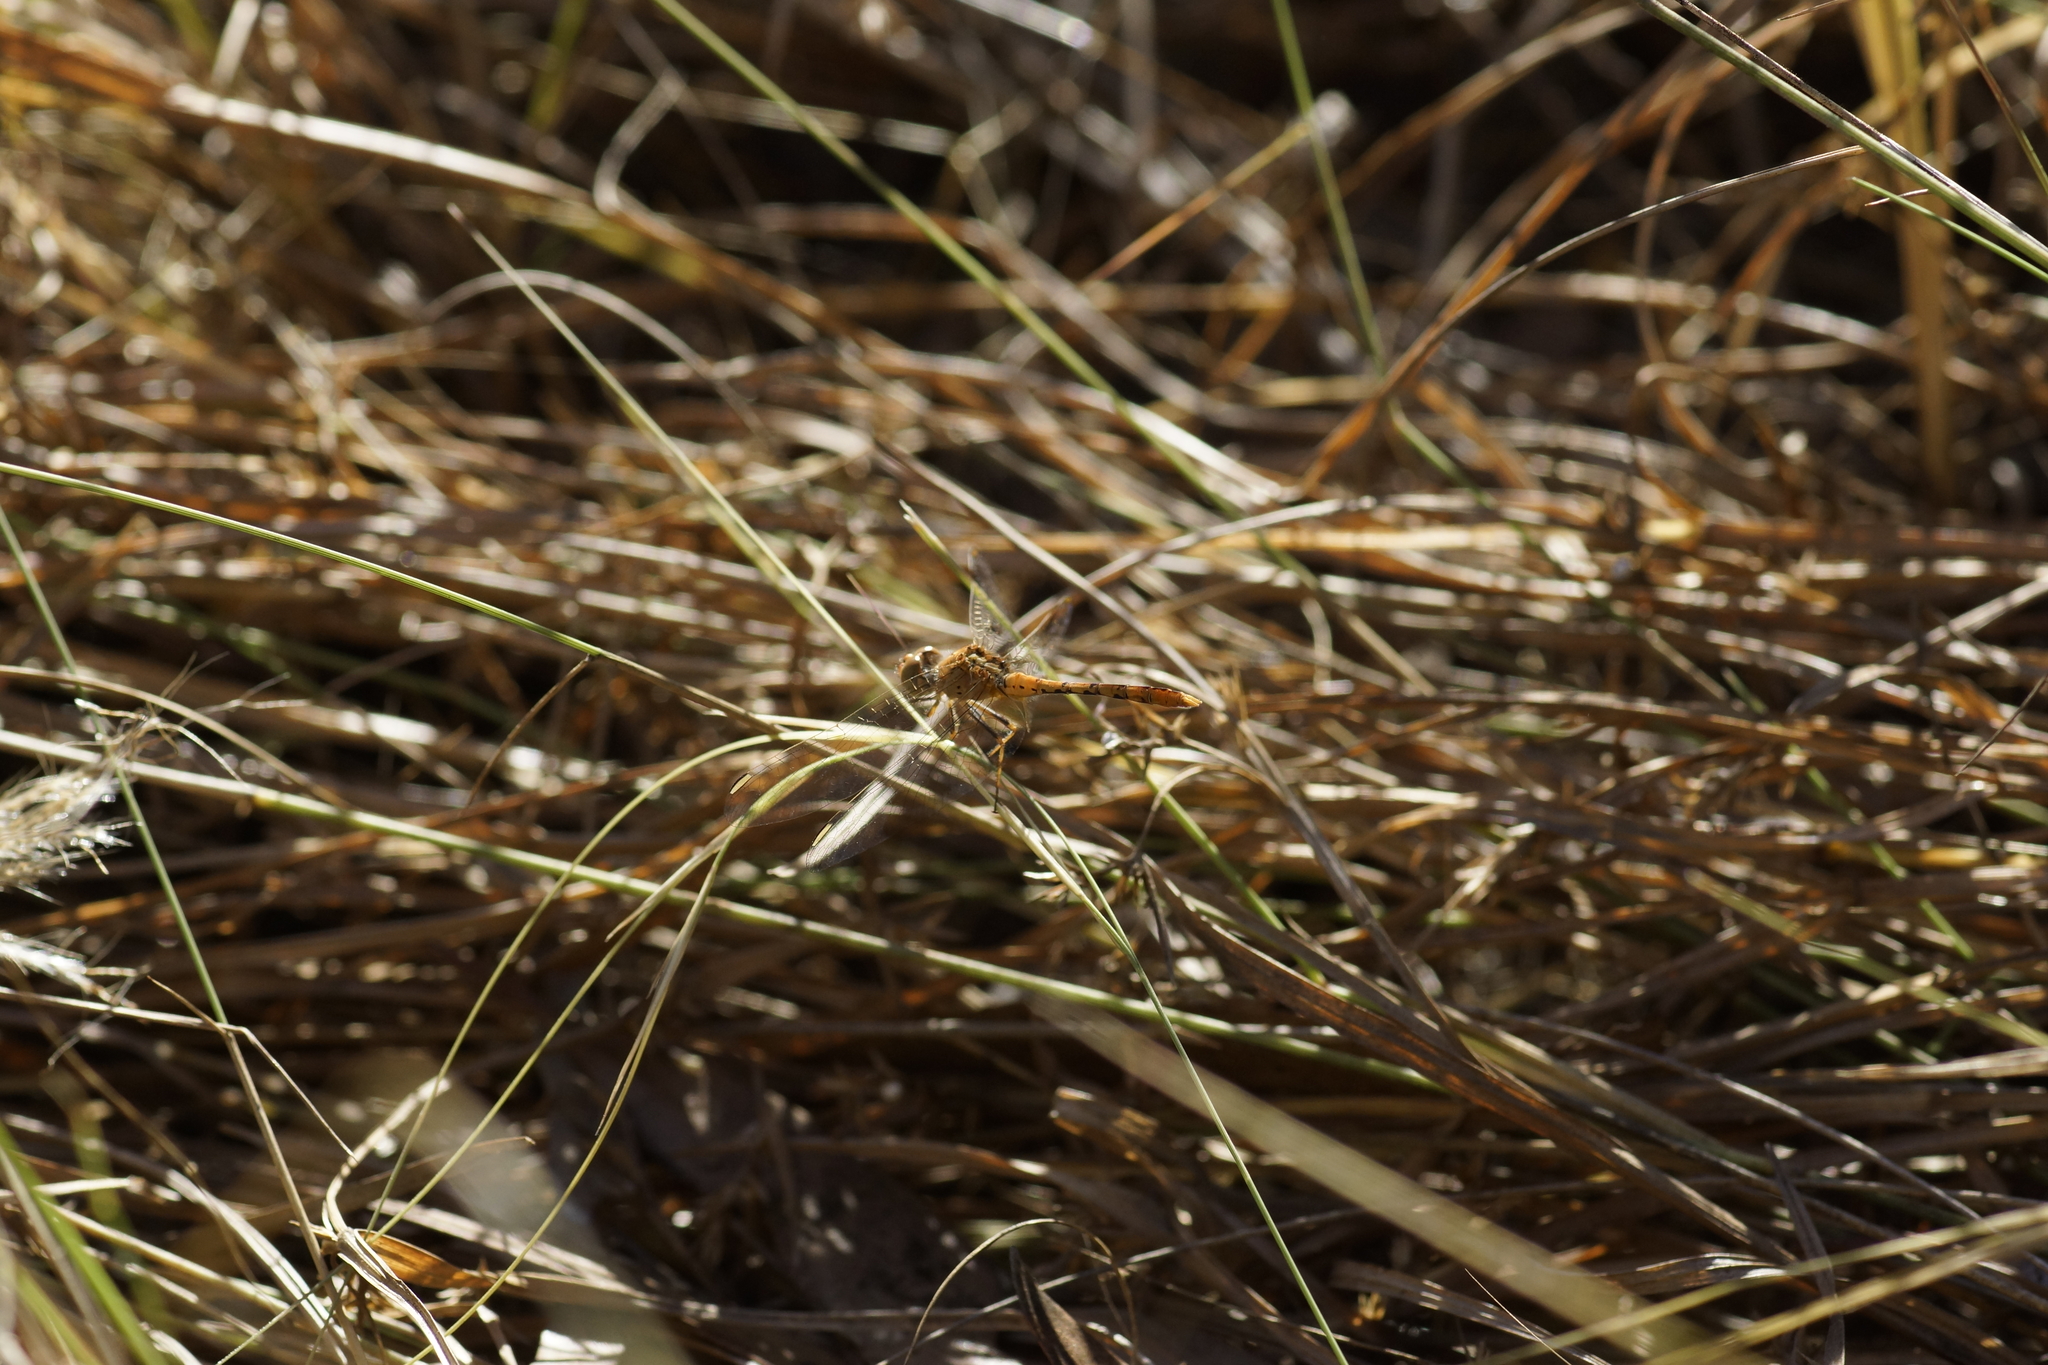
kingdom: Animalia
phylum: Arthropoda
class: Insecta
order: Odonata
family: Libellulidae
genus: Diplacodes
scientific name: Diplacodes bipunctata
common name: Red percher dragonfly
